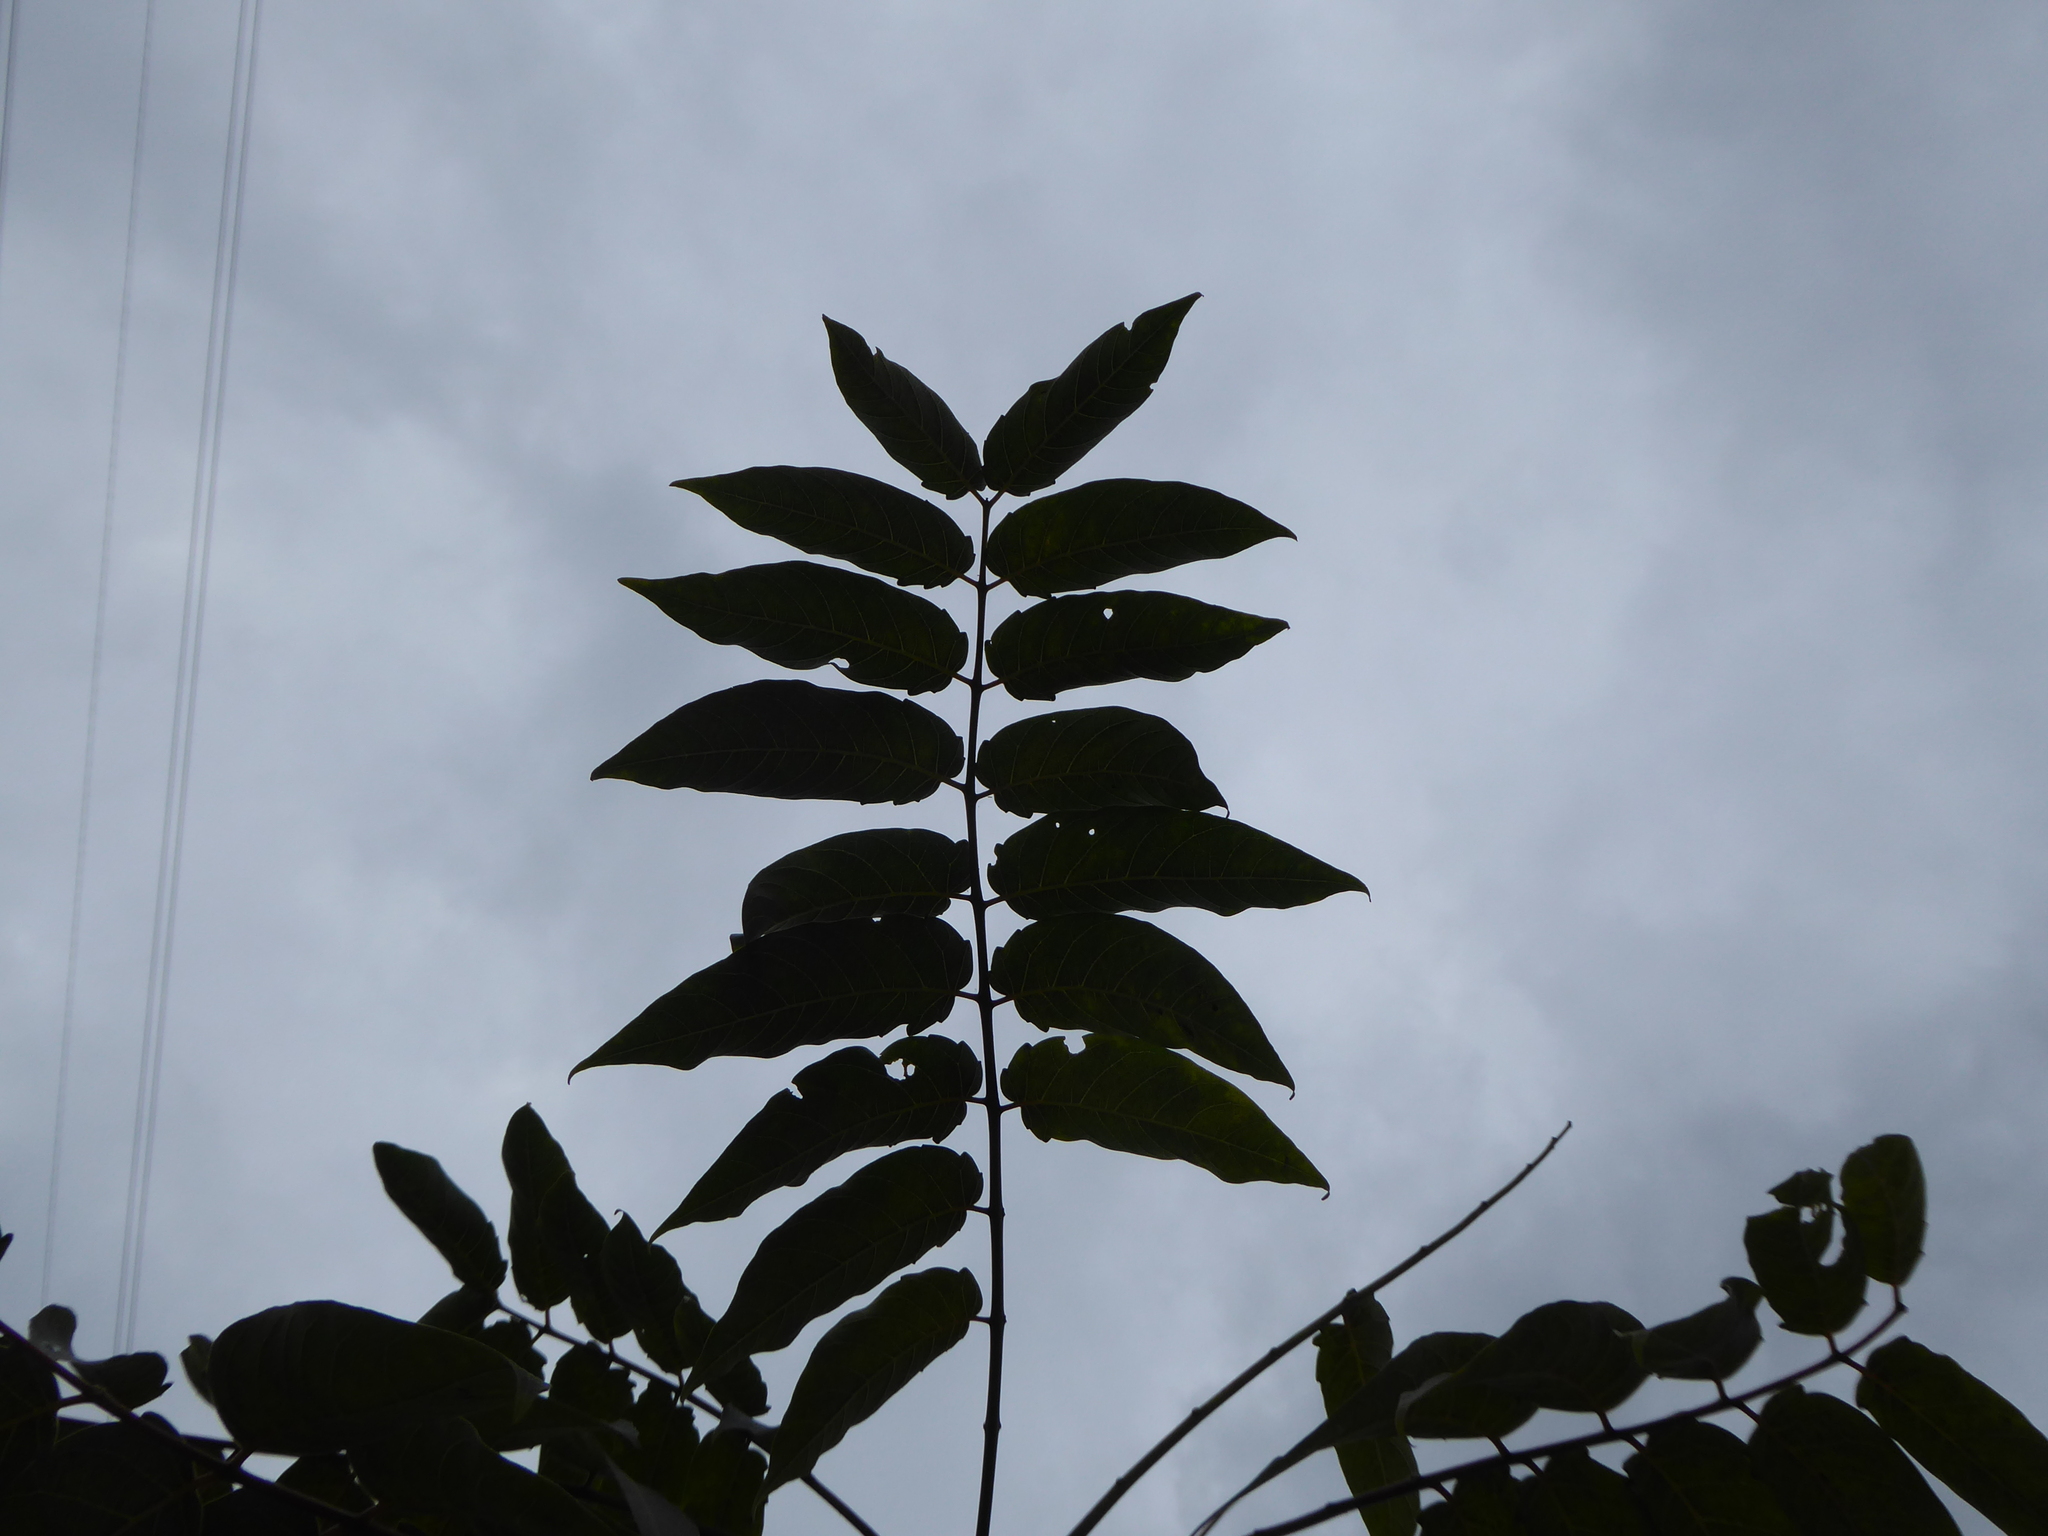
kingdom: Plantae
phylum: Tracheophyta
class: Magnoliopsida
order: Sapindales
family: Simaroubaceae
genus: Ailanthus
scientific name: Ailanthus altissima
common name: Tree-of-heaven
